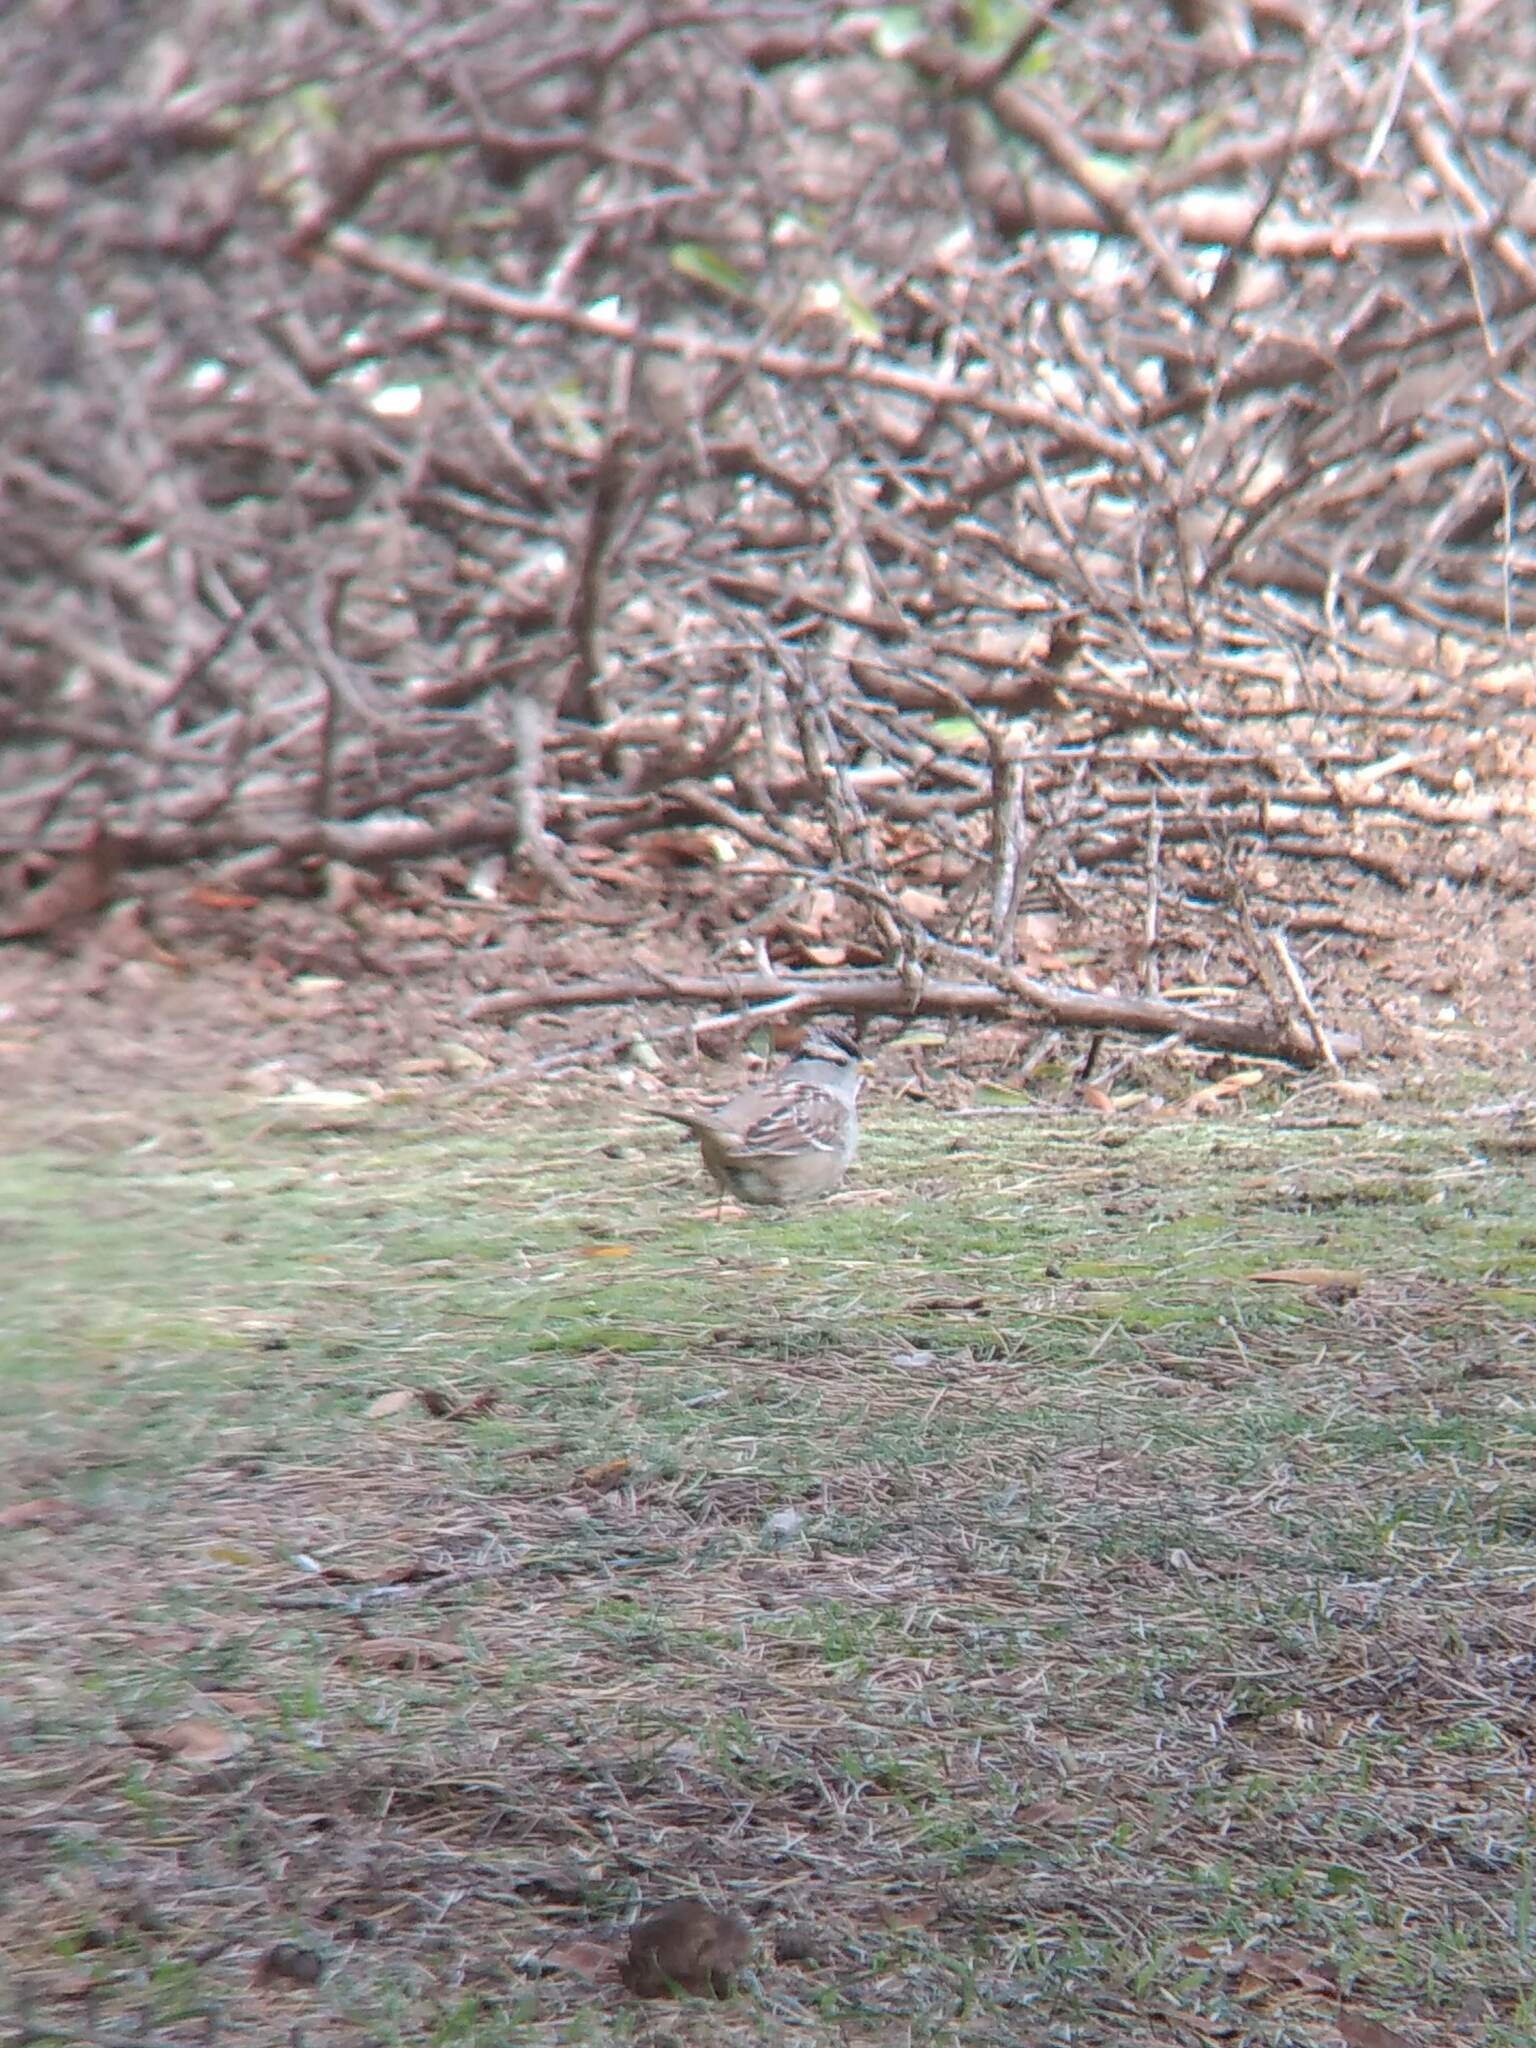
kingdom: Animalia
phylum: Chordata
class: Aves
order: Passeriformes
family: Passerellidae
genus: Zonotrichia
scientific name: Zonotrichia leucophrys
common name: White-crowned sparrow
